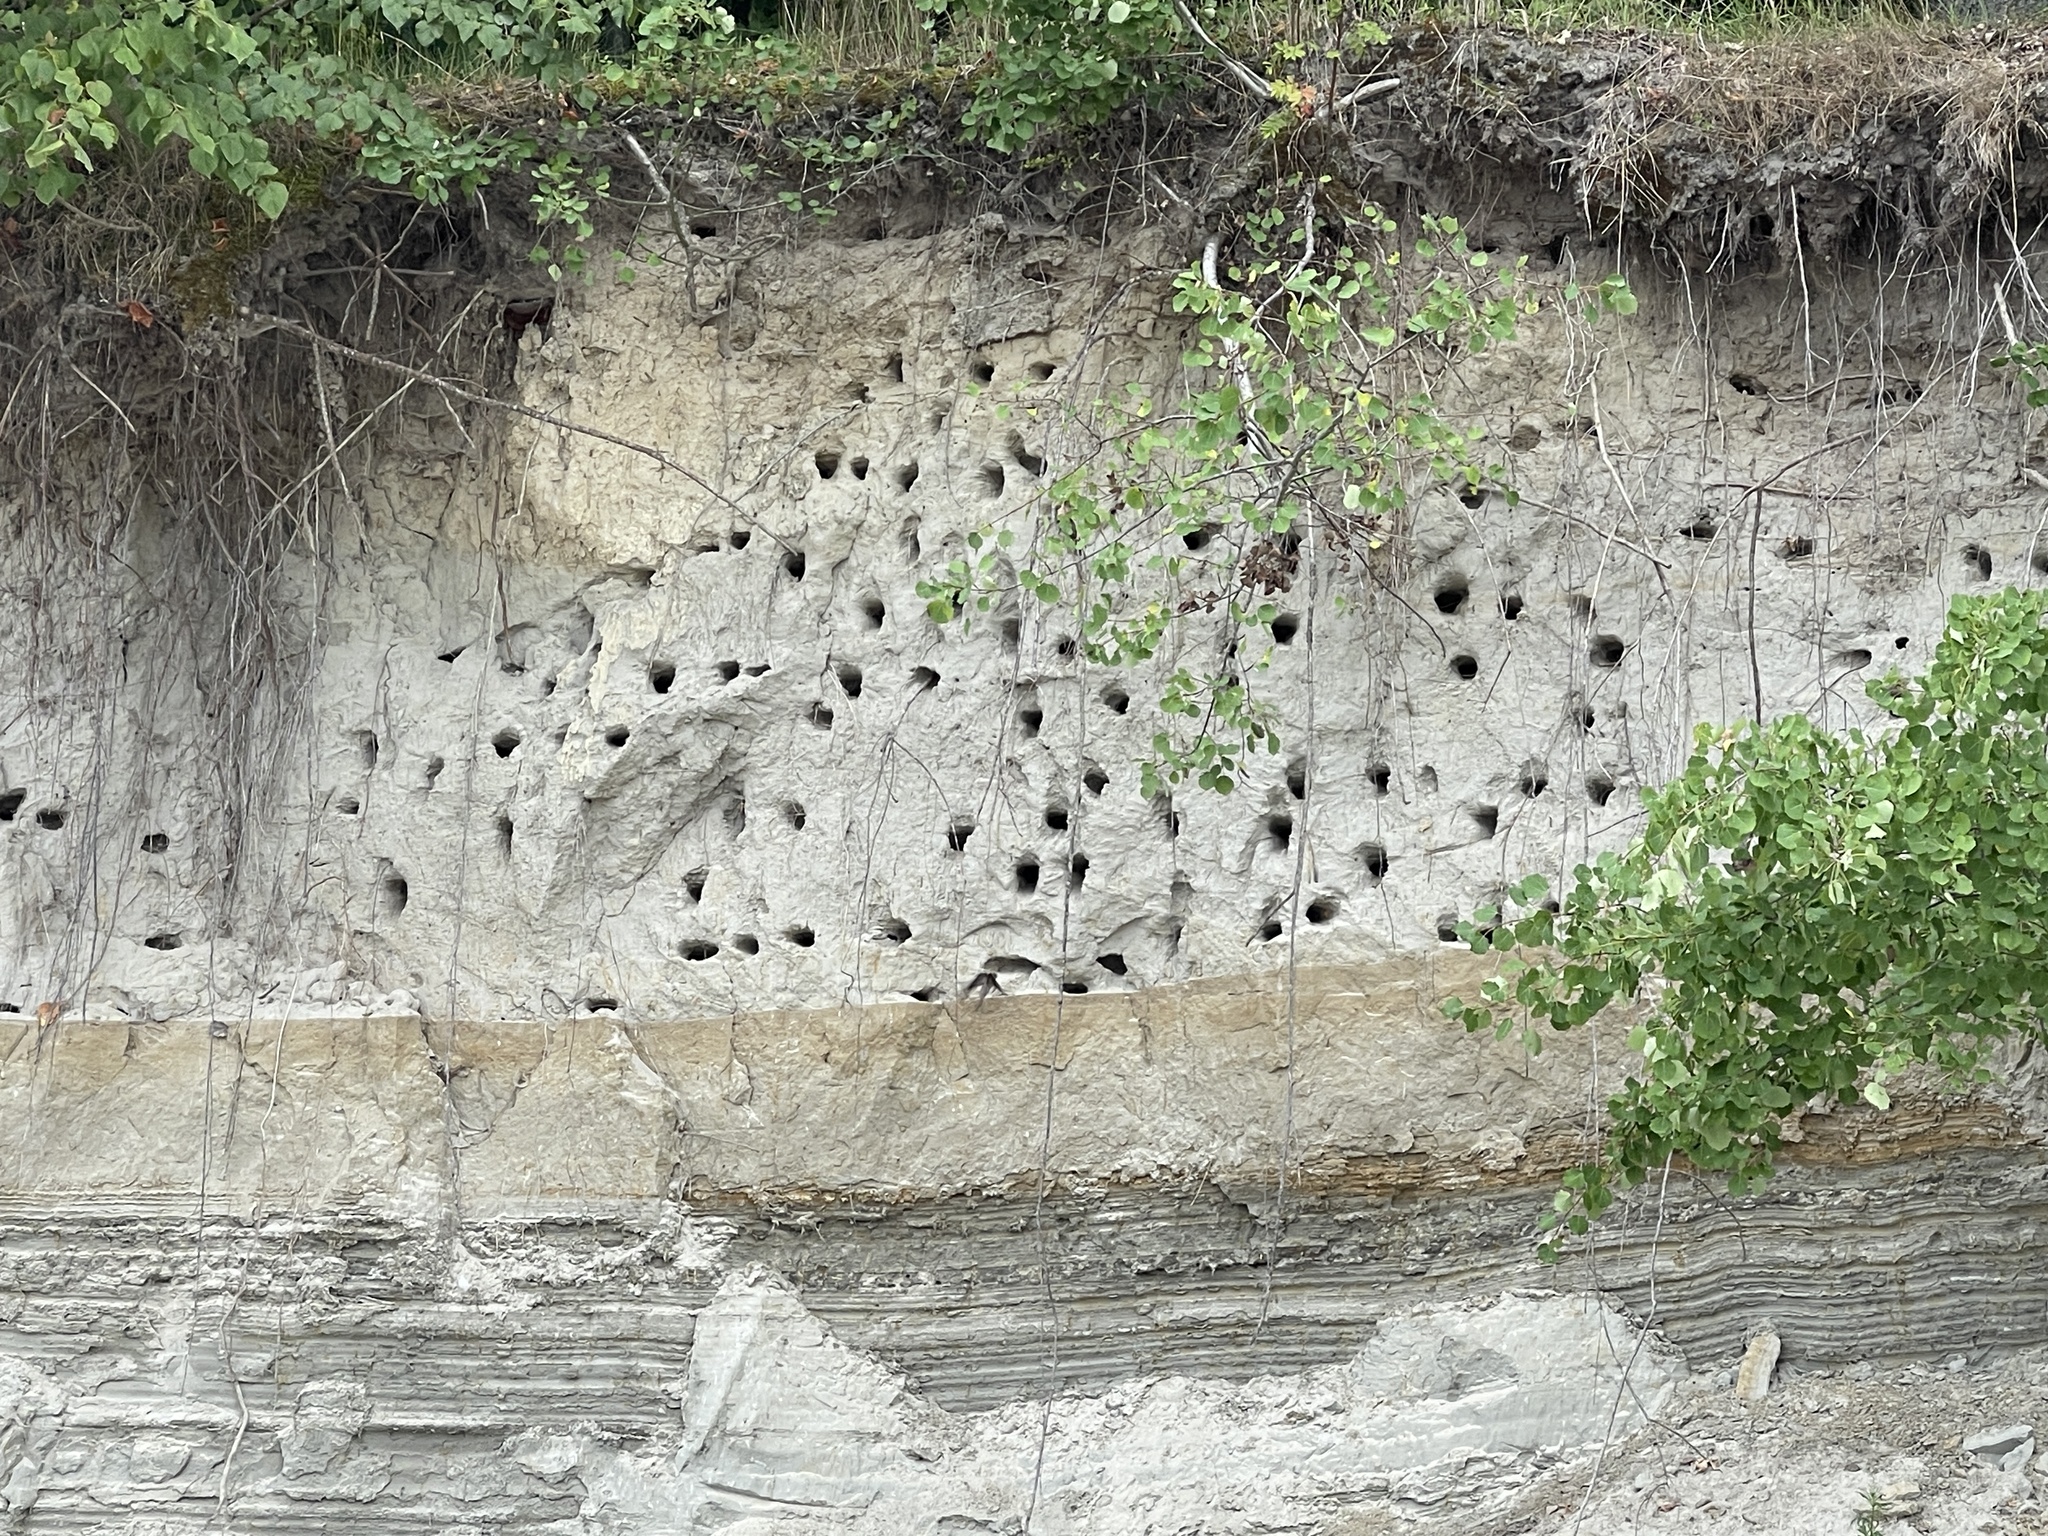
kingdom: Animalia
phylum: Chordata
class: Aves
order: Passeriformes
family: Hirundinidae
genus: Riparia
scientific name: Riparia riparia
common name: Sand martin
